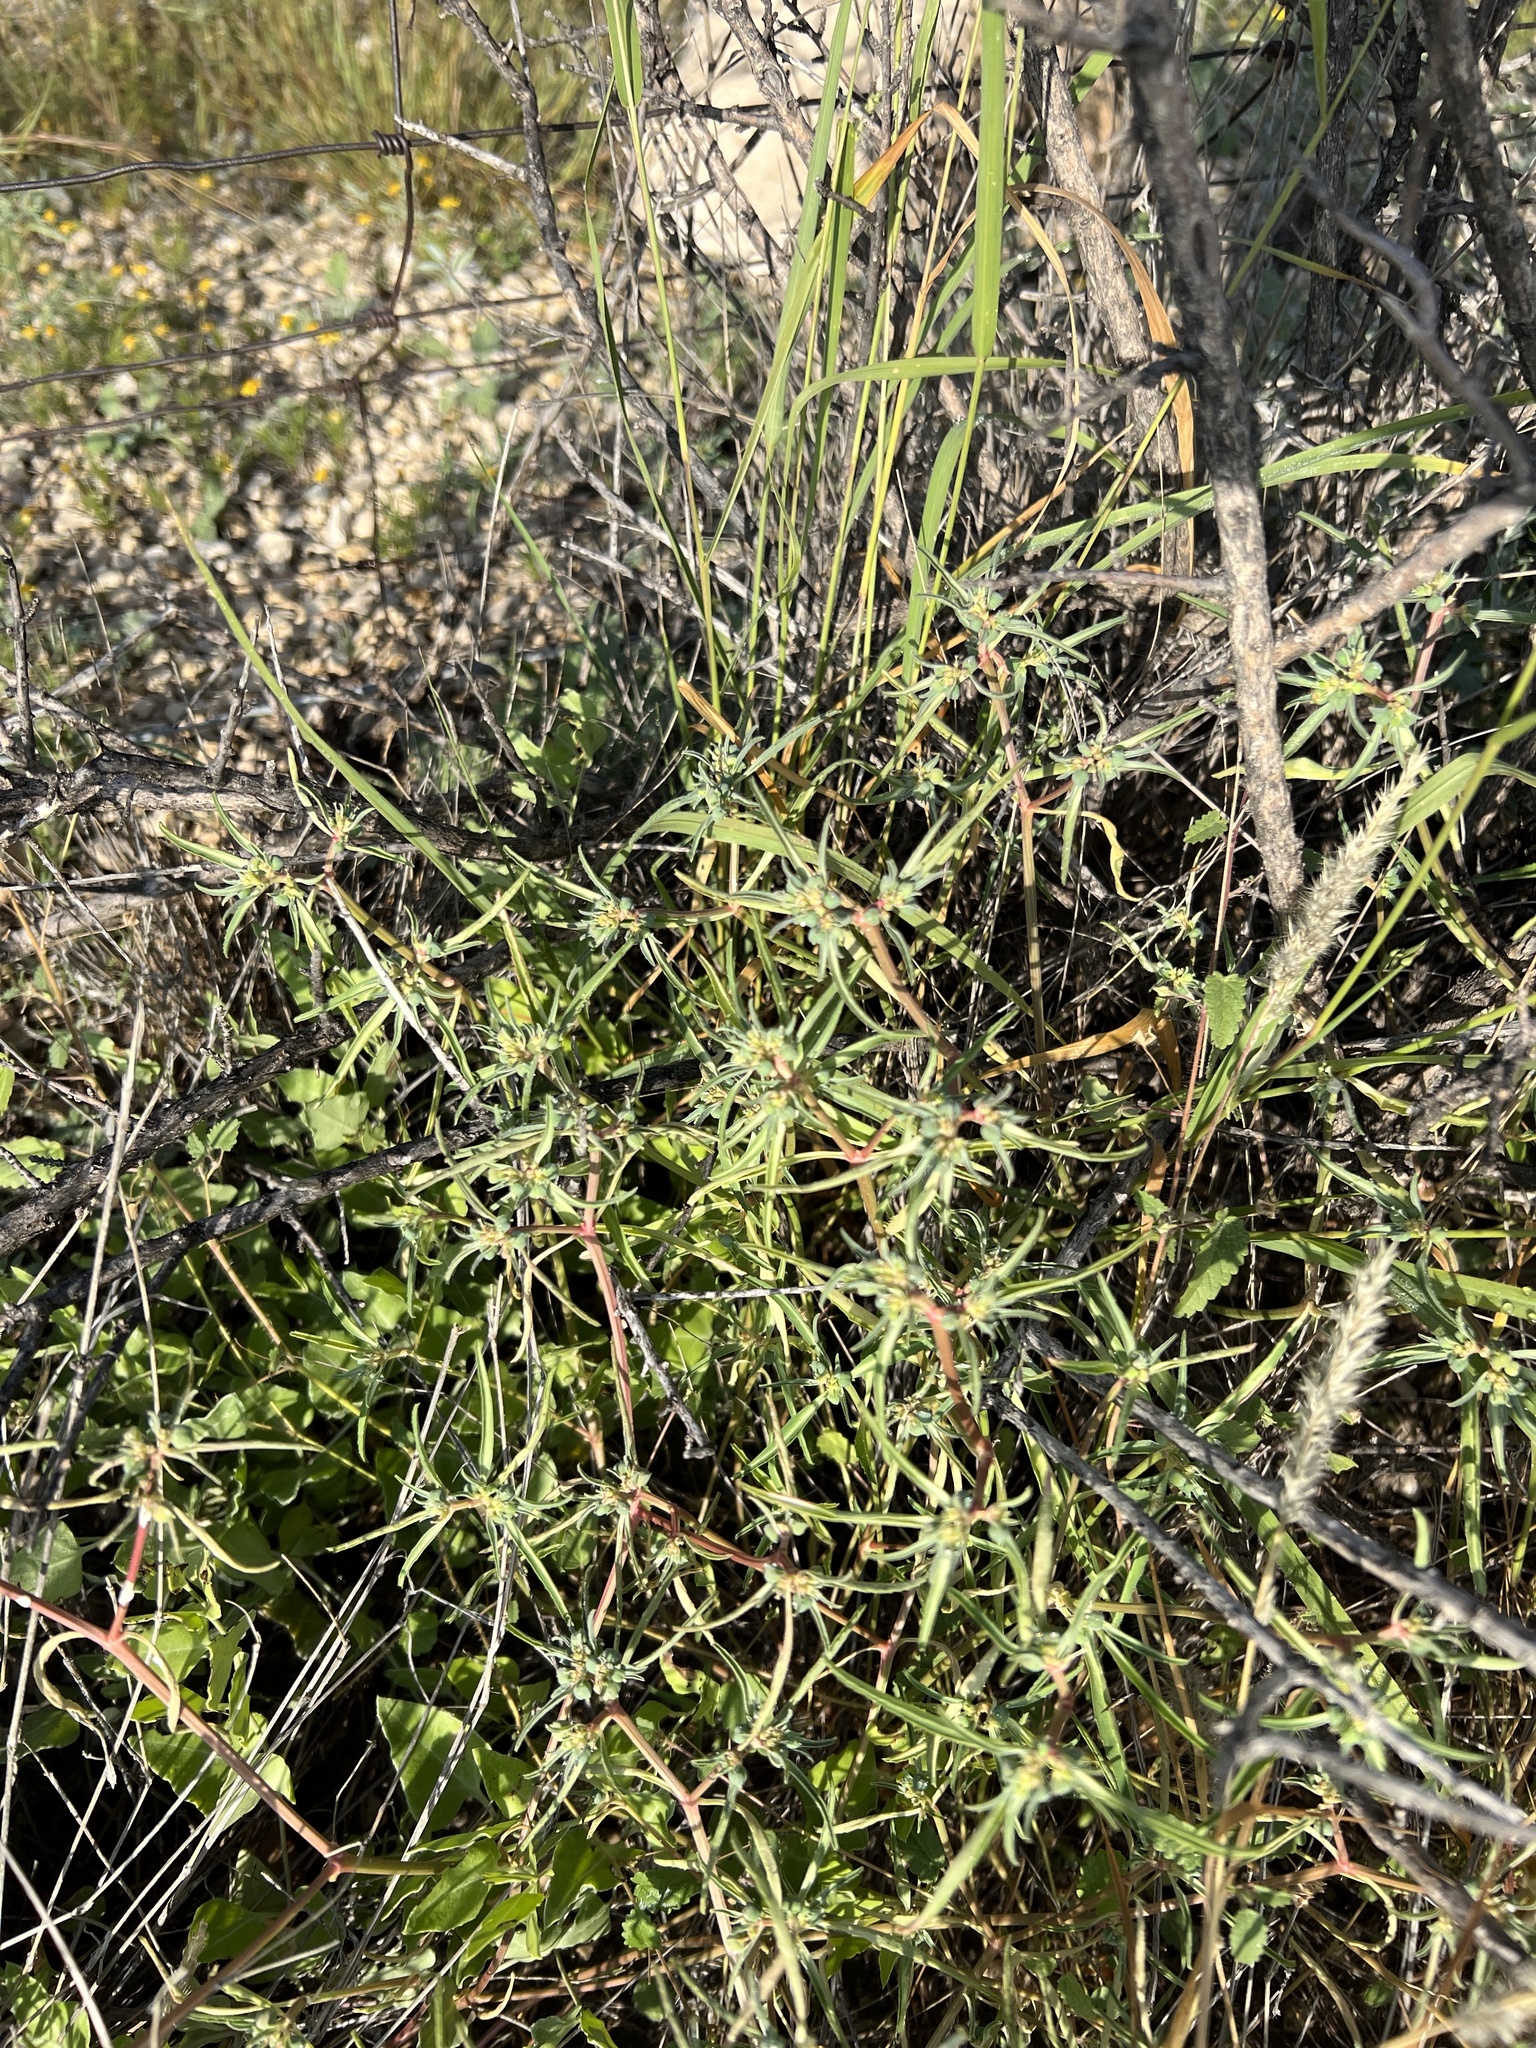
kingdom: Plantae
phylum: Tracheophyta
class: Magnoliopsida
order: Malpighiales
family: Euphorbiaceae
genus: Euphorbia
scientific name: Euphorbia exstipulata
